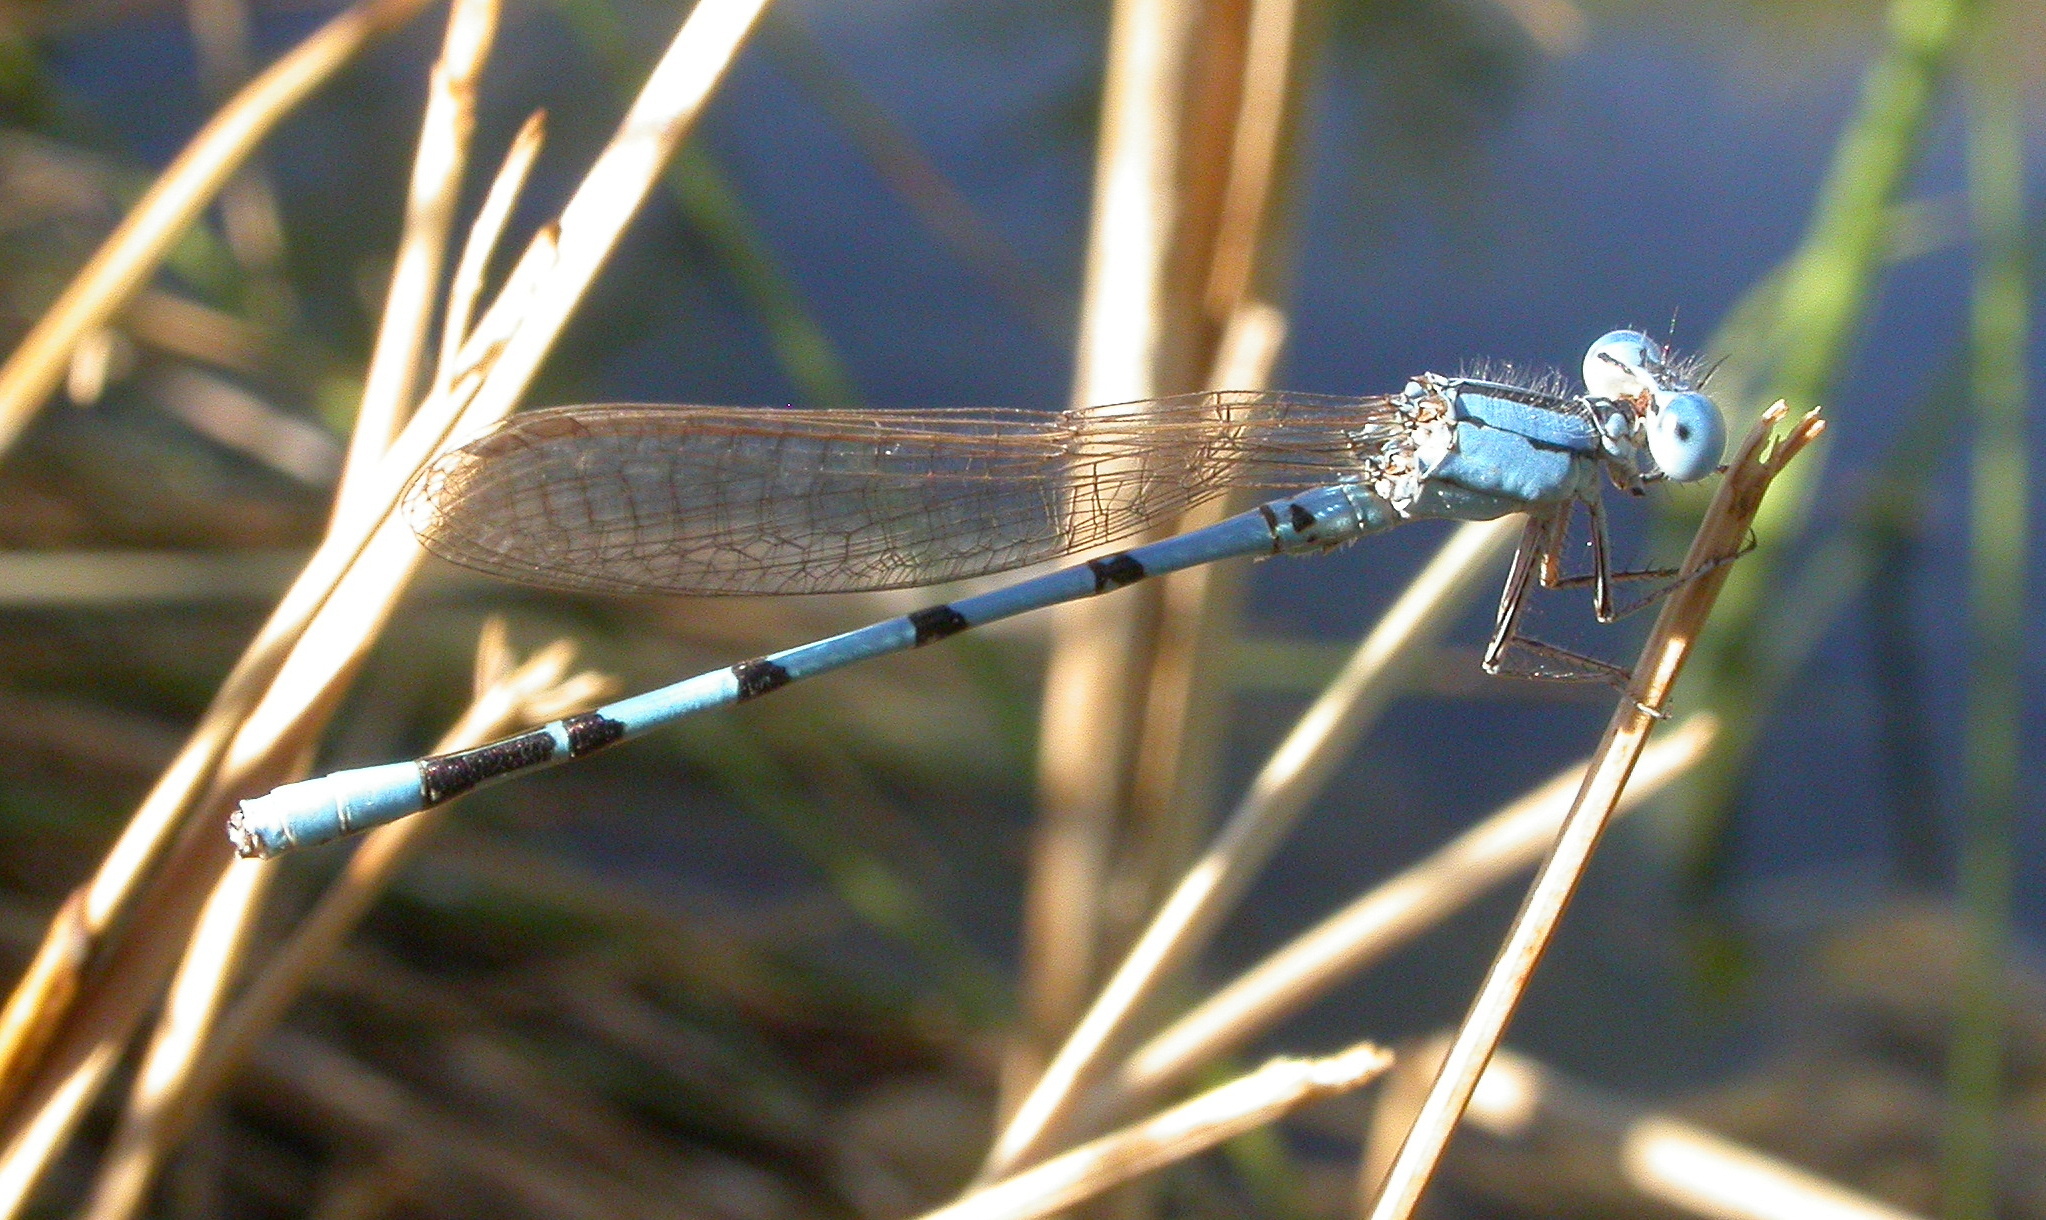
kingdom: Animalia
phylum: Arthropoda
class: Insecta
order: Odonata
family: Coenagrionidae
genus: Argia
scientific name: Argia nahuana
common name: Aztec dancer
